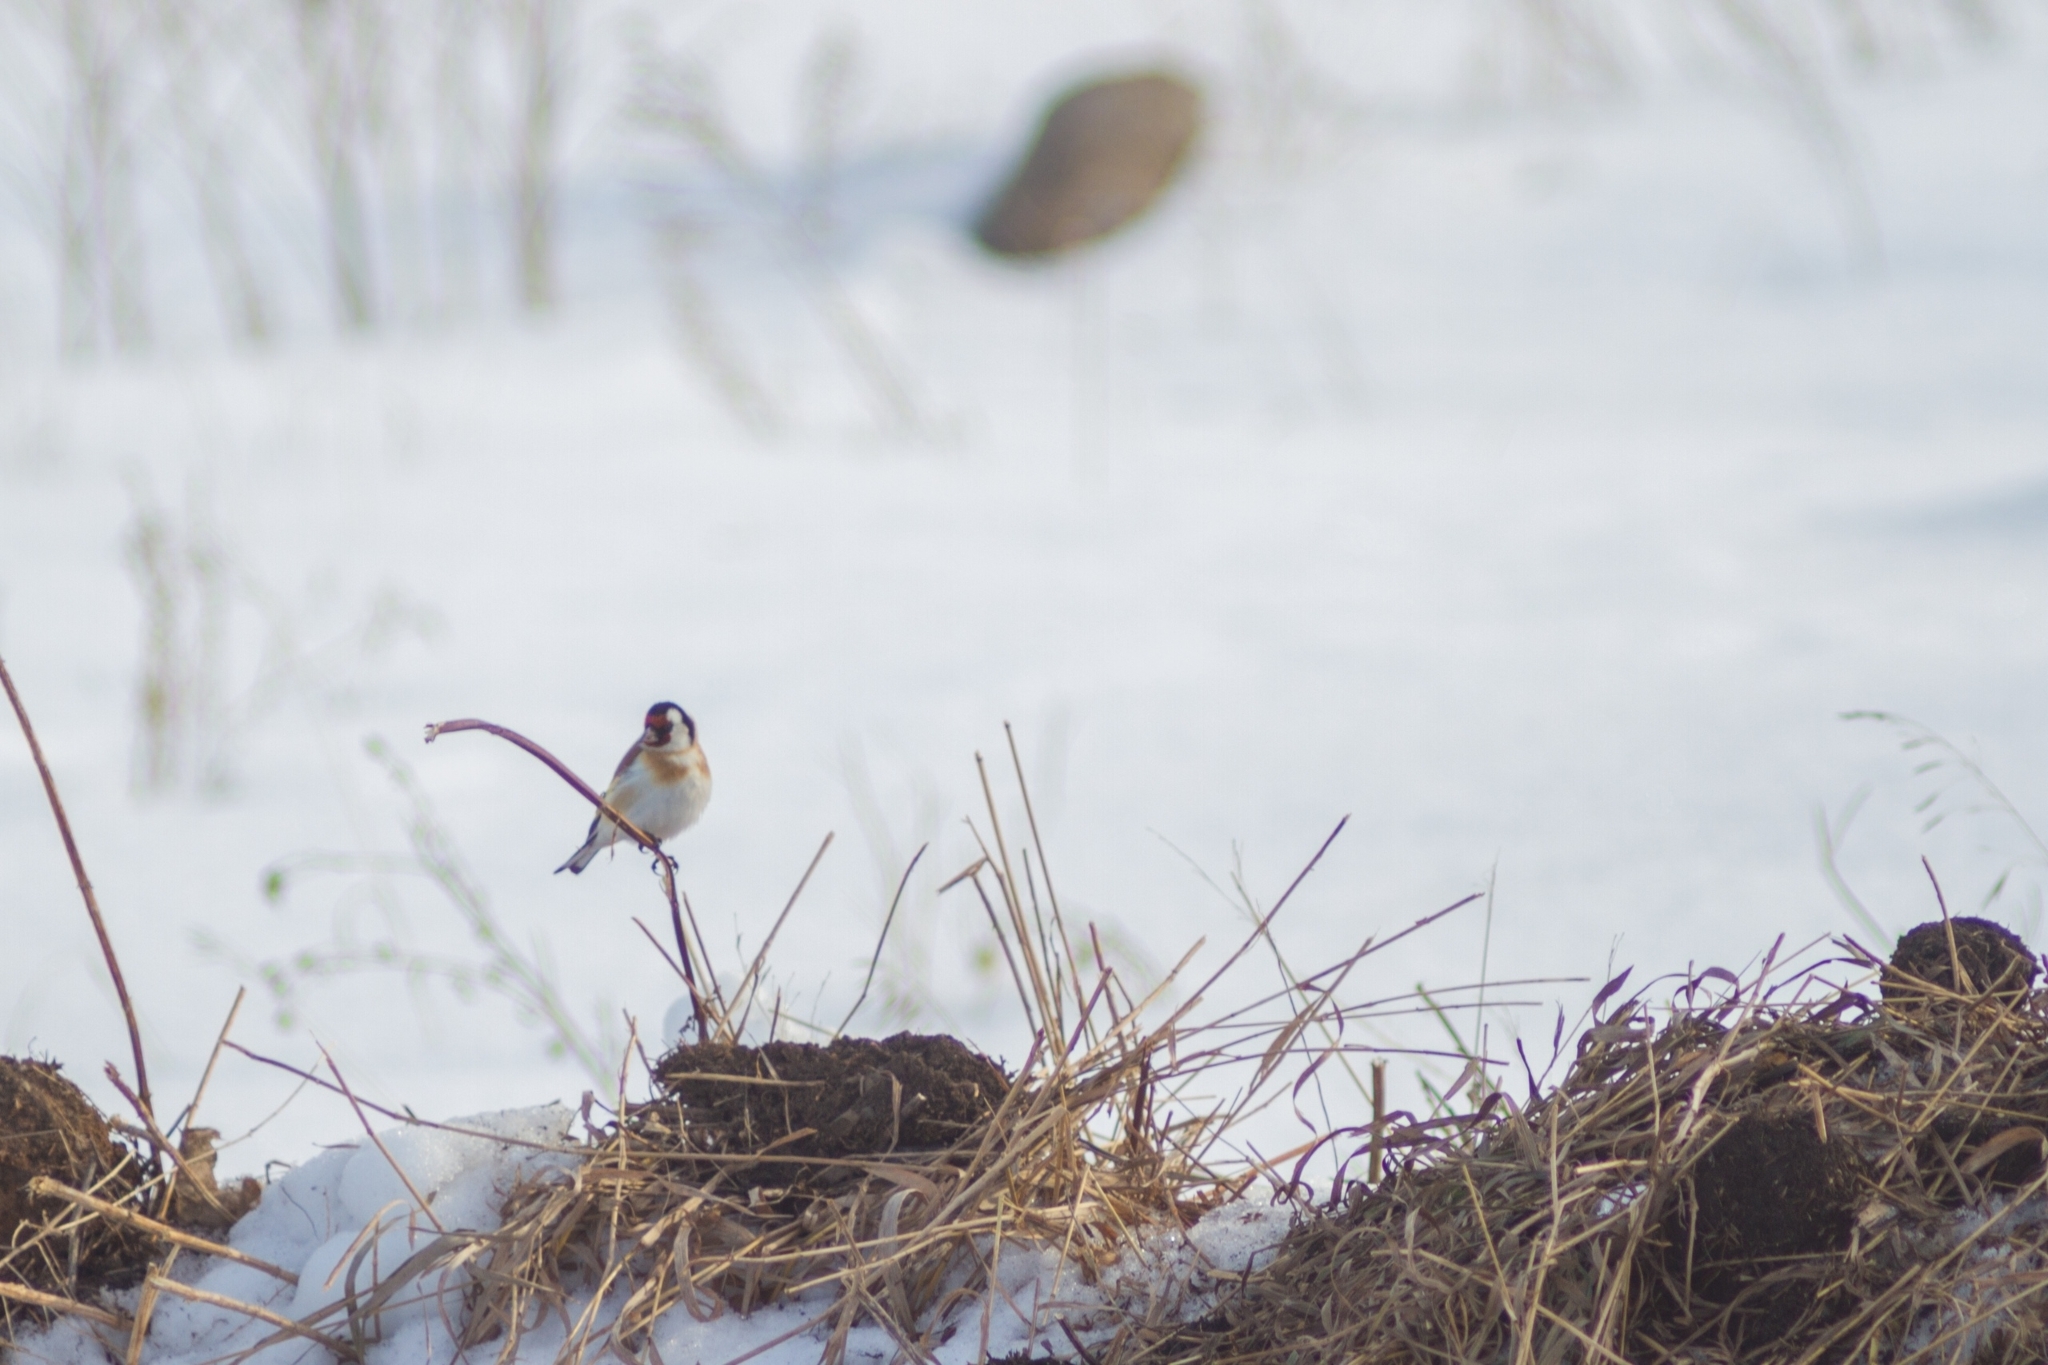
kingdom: Animalia
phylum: Chordata
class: Aves
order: Passeriformes
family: Fringillidae
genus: Carduelis
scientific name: Carduelis carduelis
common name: European goldfinch
